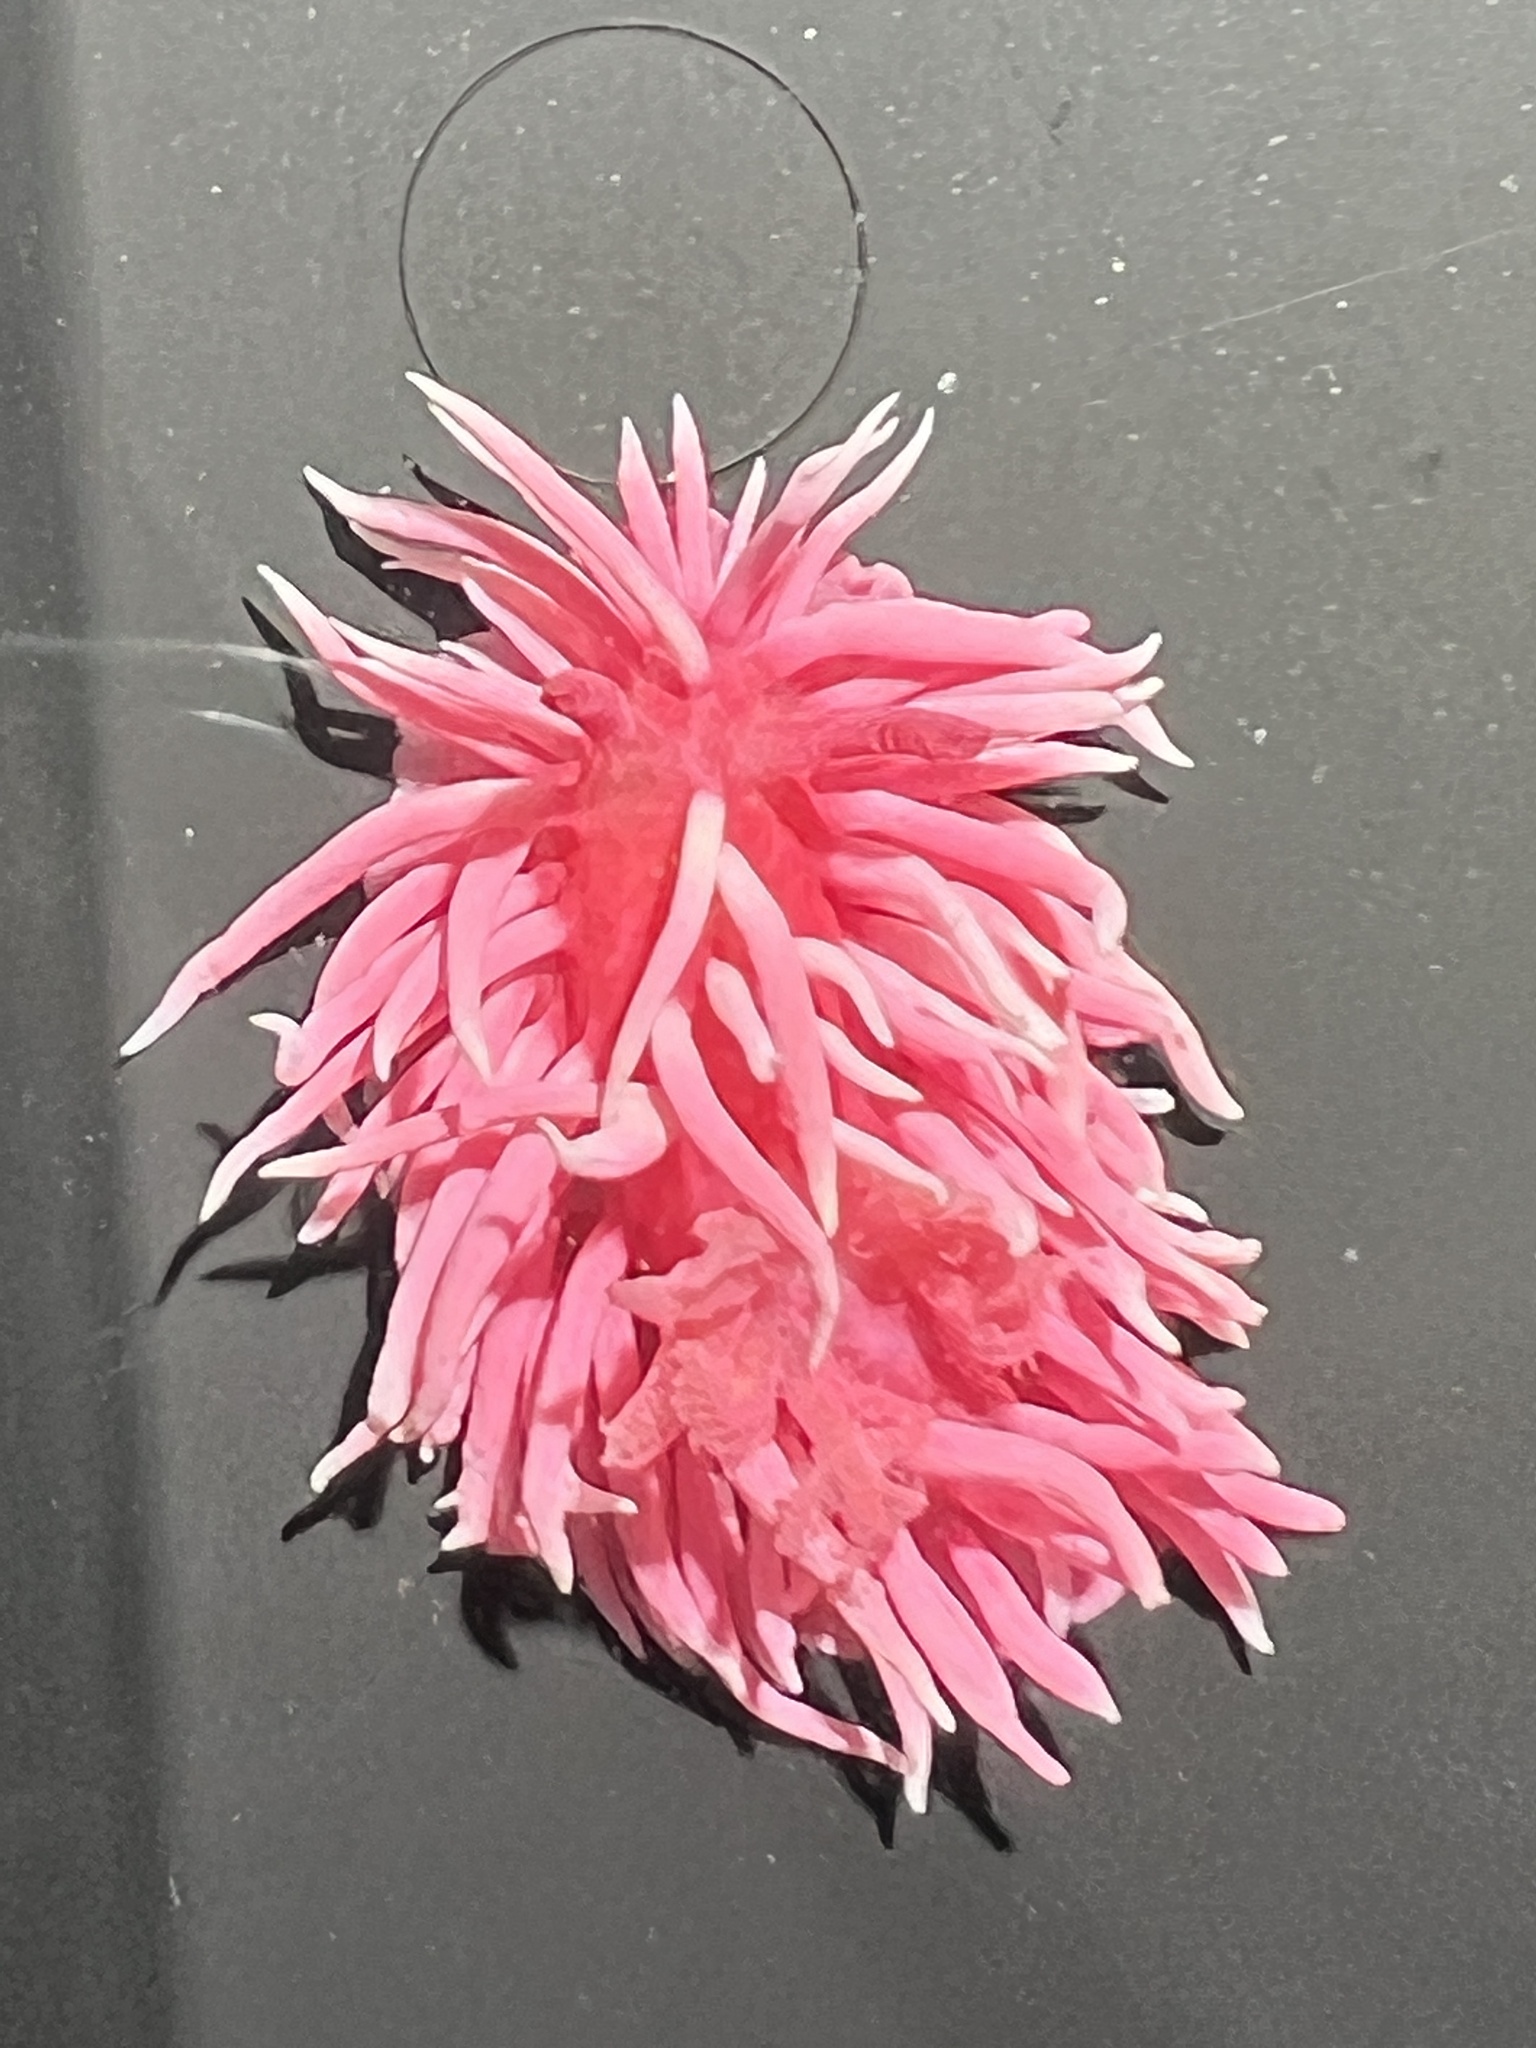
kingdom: Animalia
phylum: Mollusca
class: Gastropoda
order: Nudibranchia
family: Goniodorididae
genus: Okenia
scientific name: Okenia
